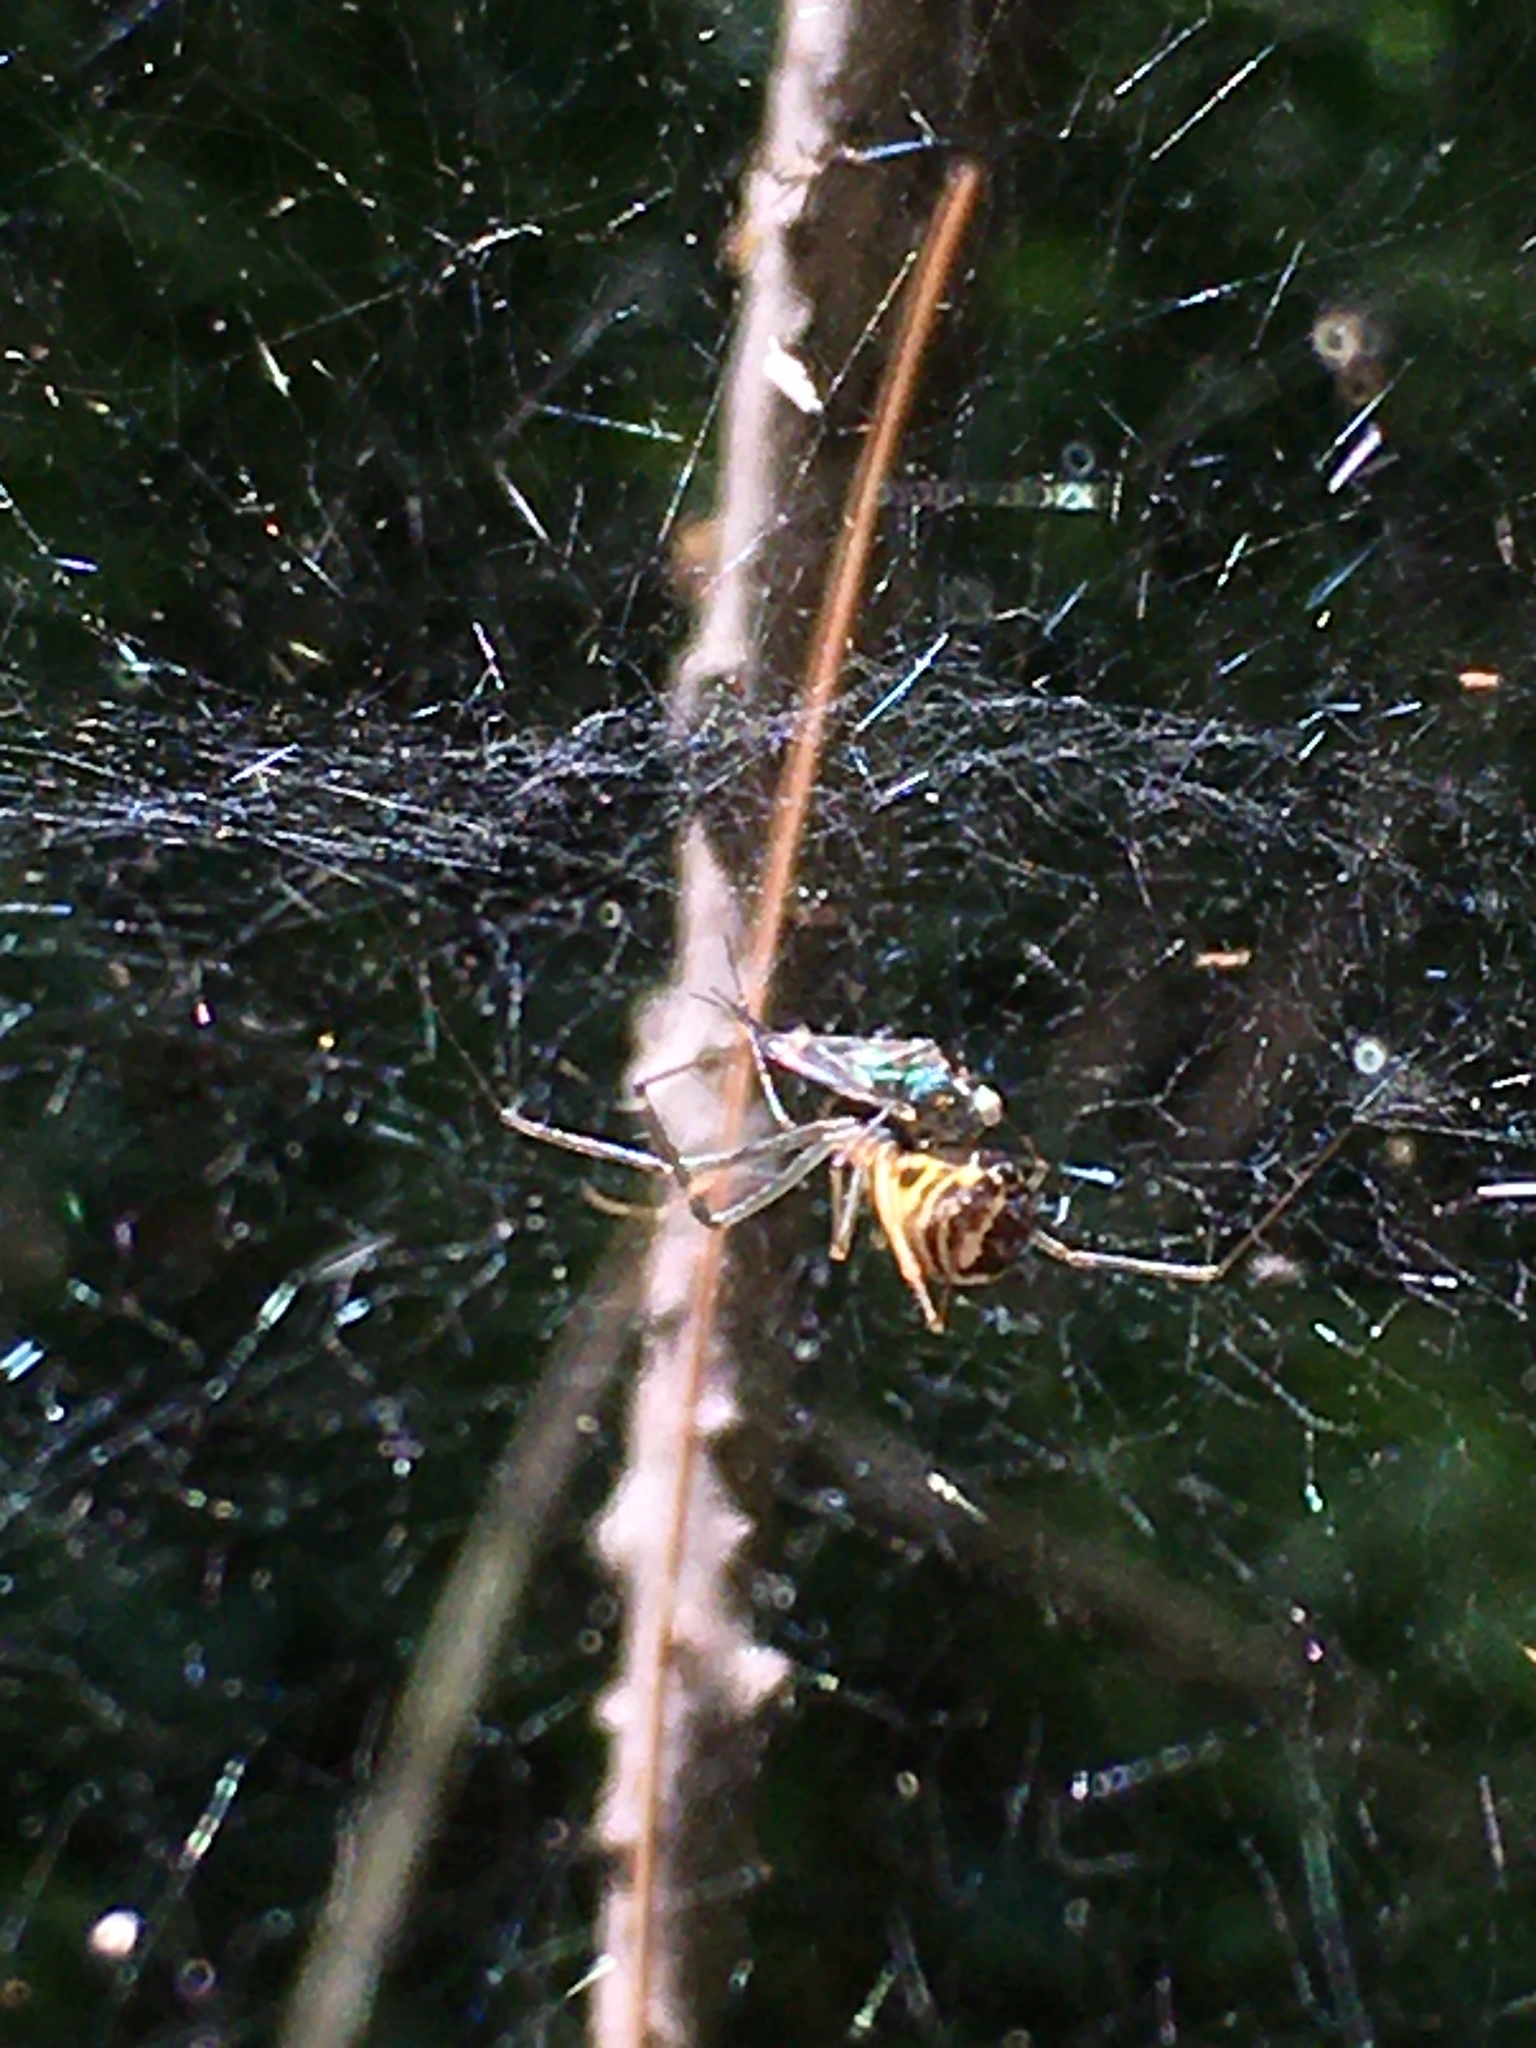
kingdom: Animalia
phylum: Arthropoda
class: Arachnida
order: Araneae
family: Linyphiidae
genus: Neriene
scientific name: Neriene radiata
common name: Filmy dome spider
